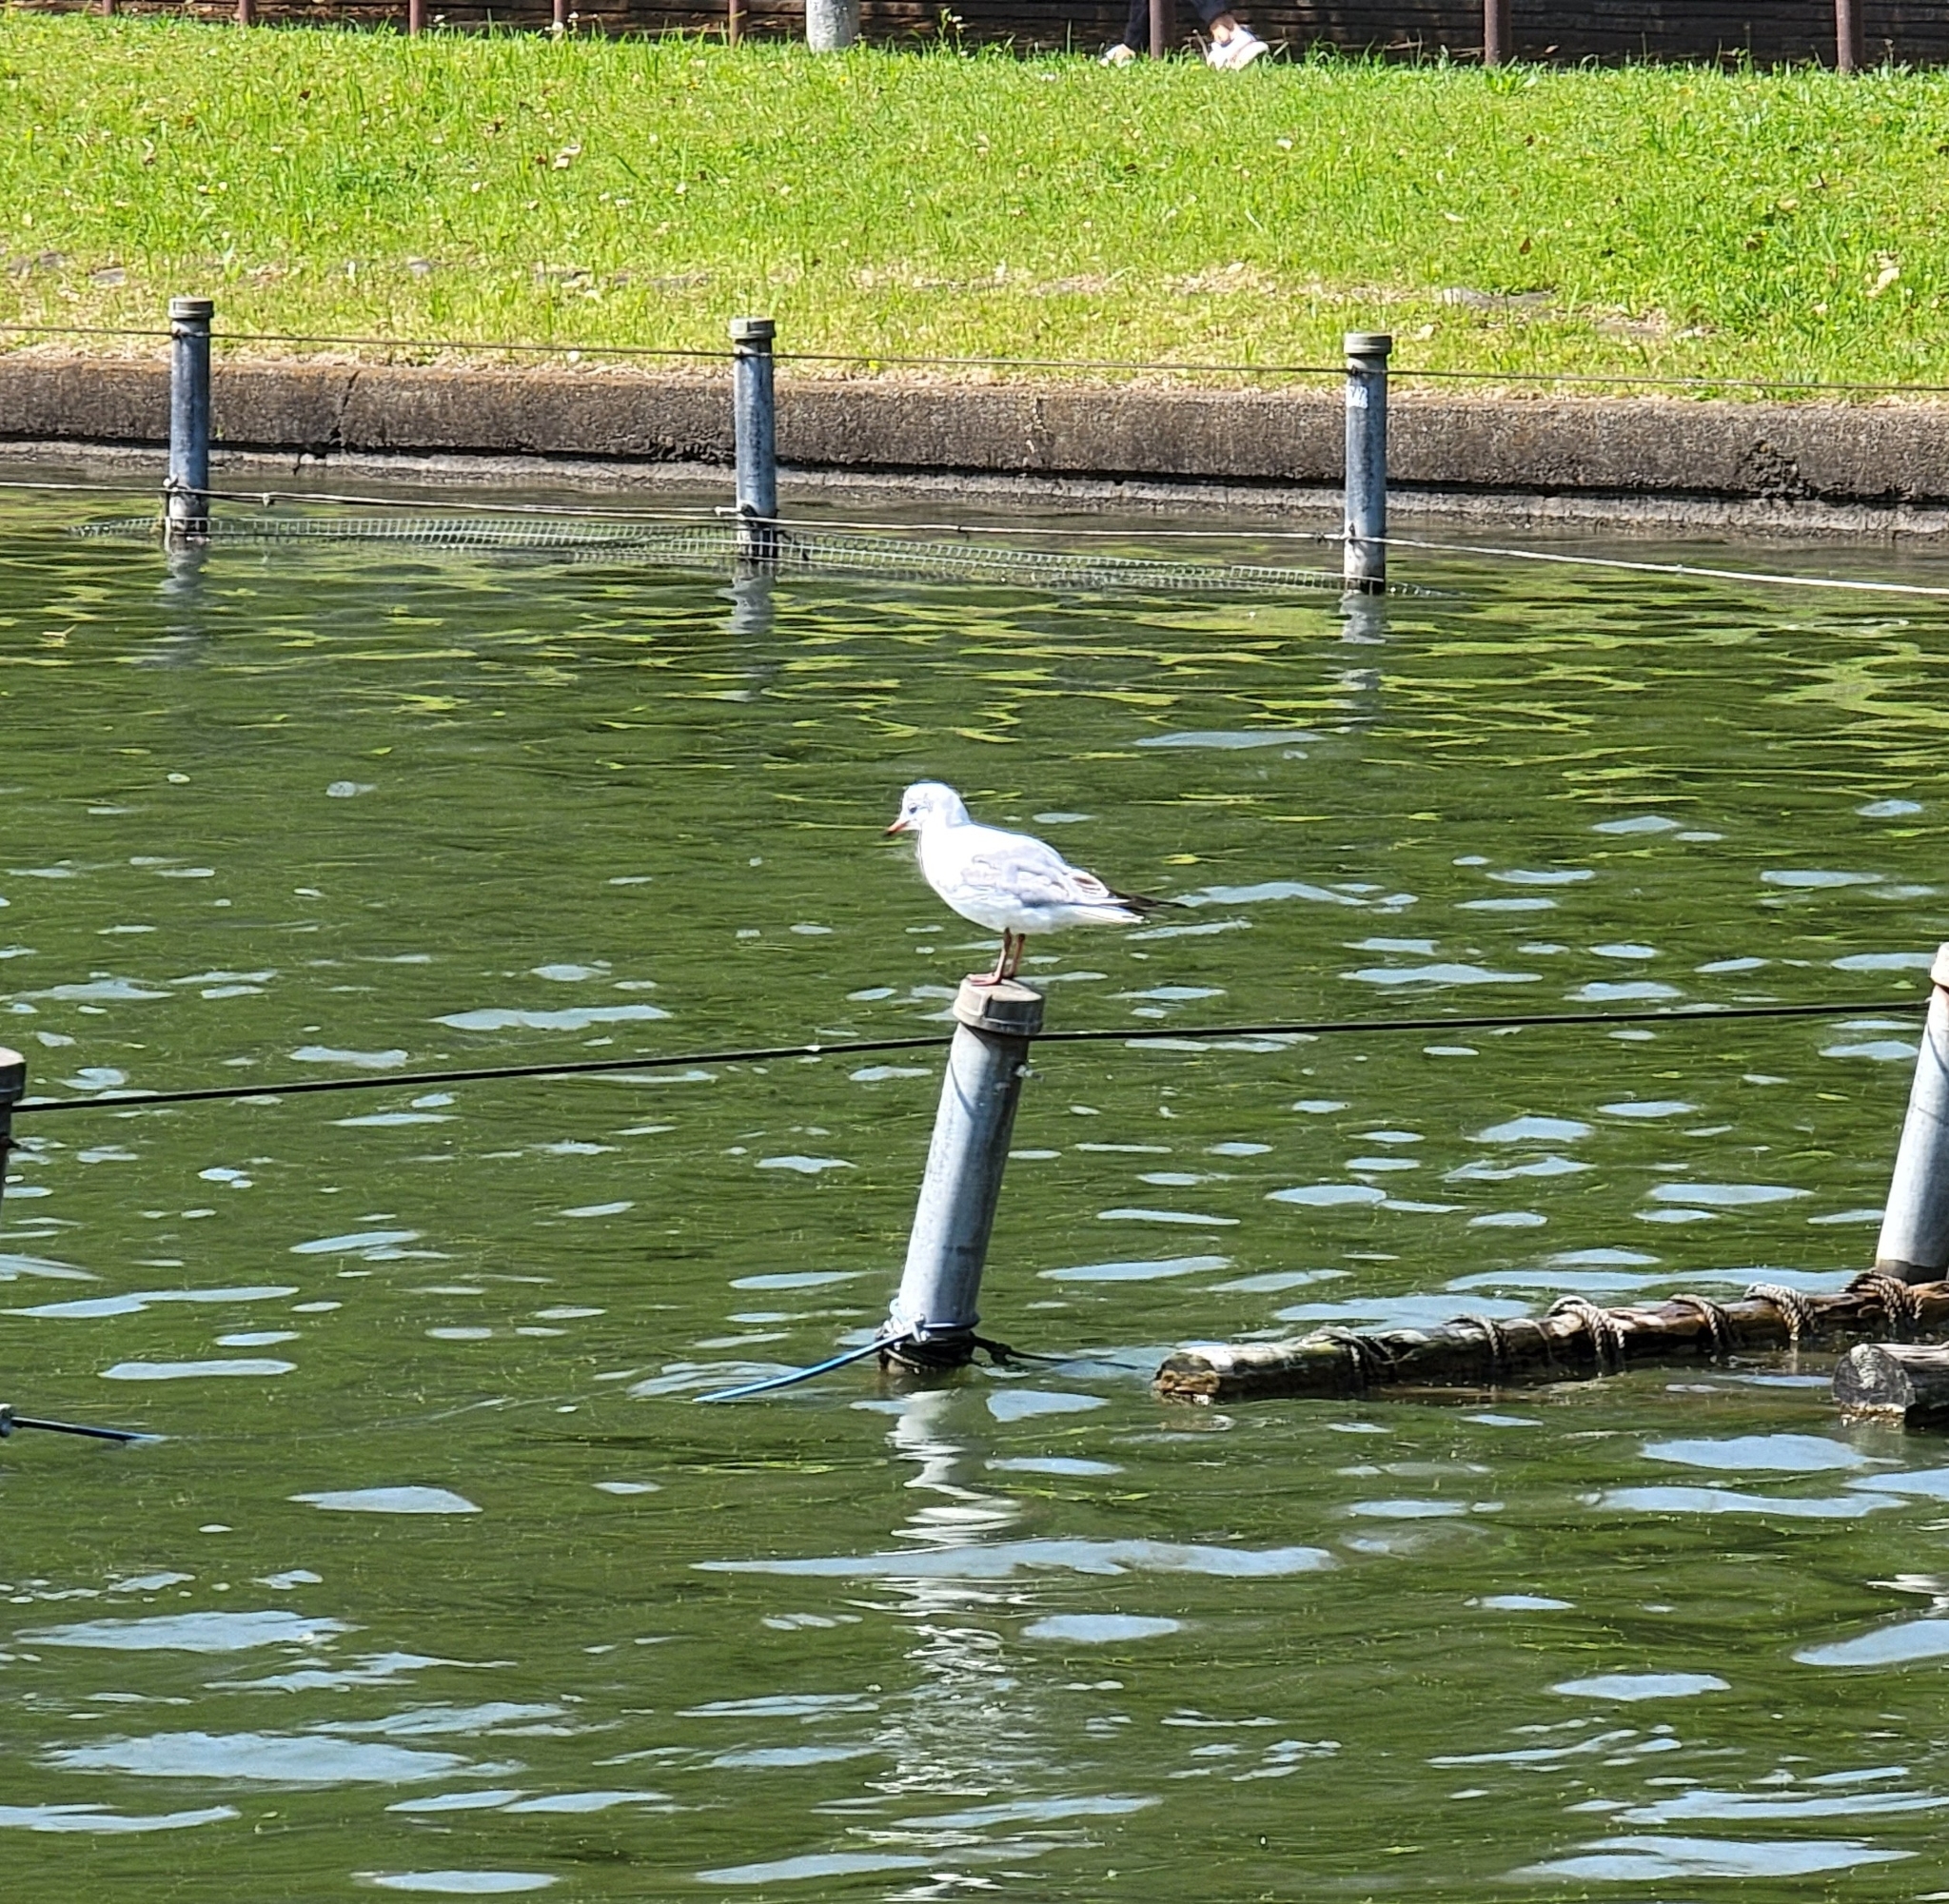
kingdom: Animalia
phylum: Chordata
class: Aves
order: Charadriiformes
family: Laridae
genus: Chroicocephalus
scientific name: Chroicocephalus ridibundus
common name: Black-headed gull
